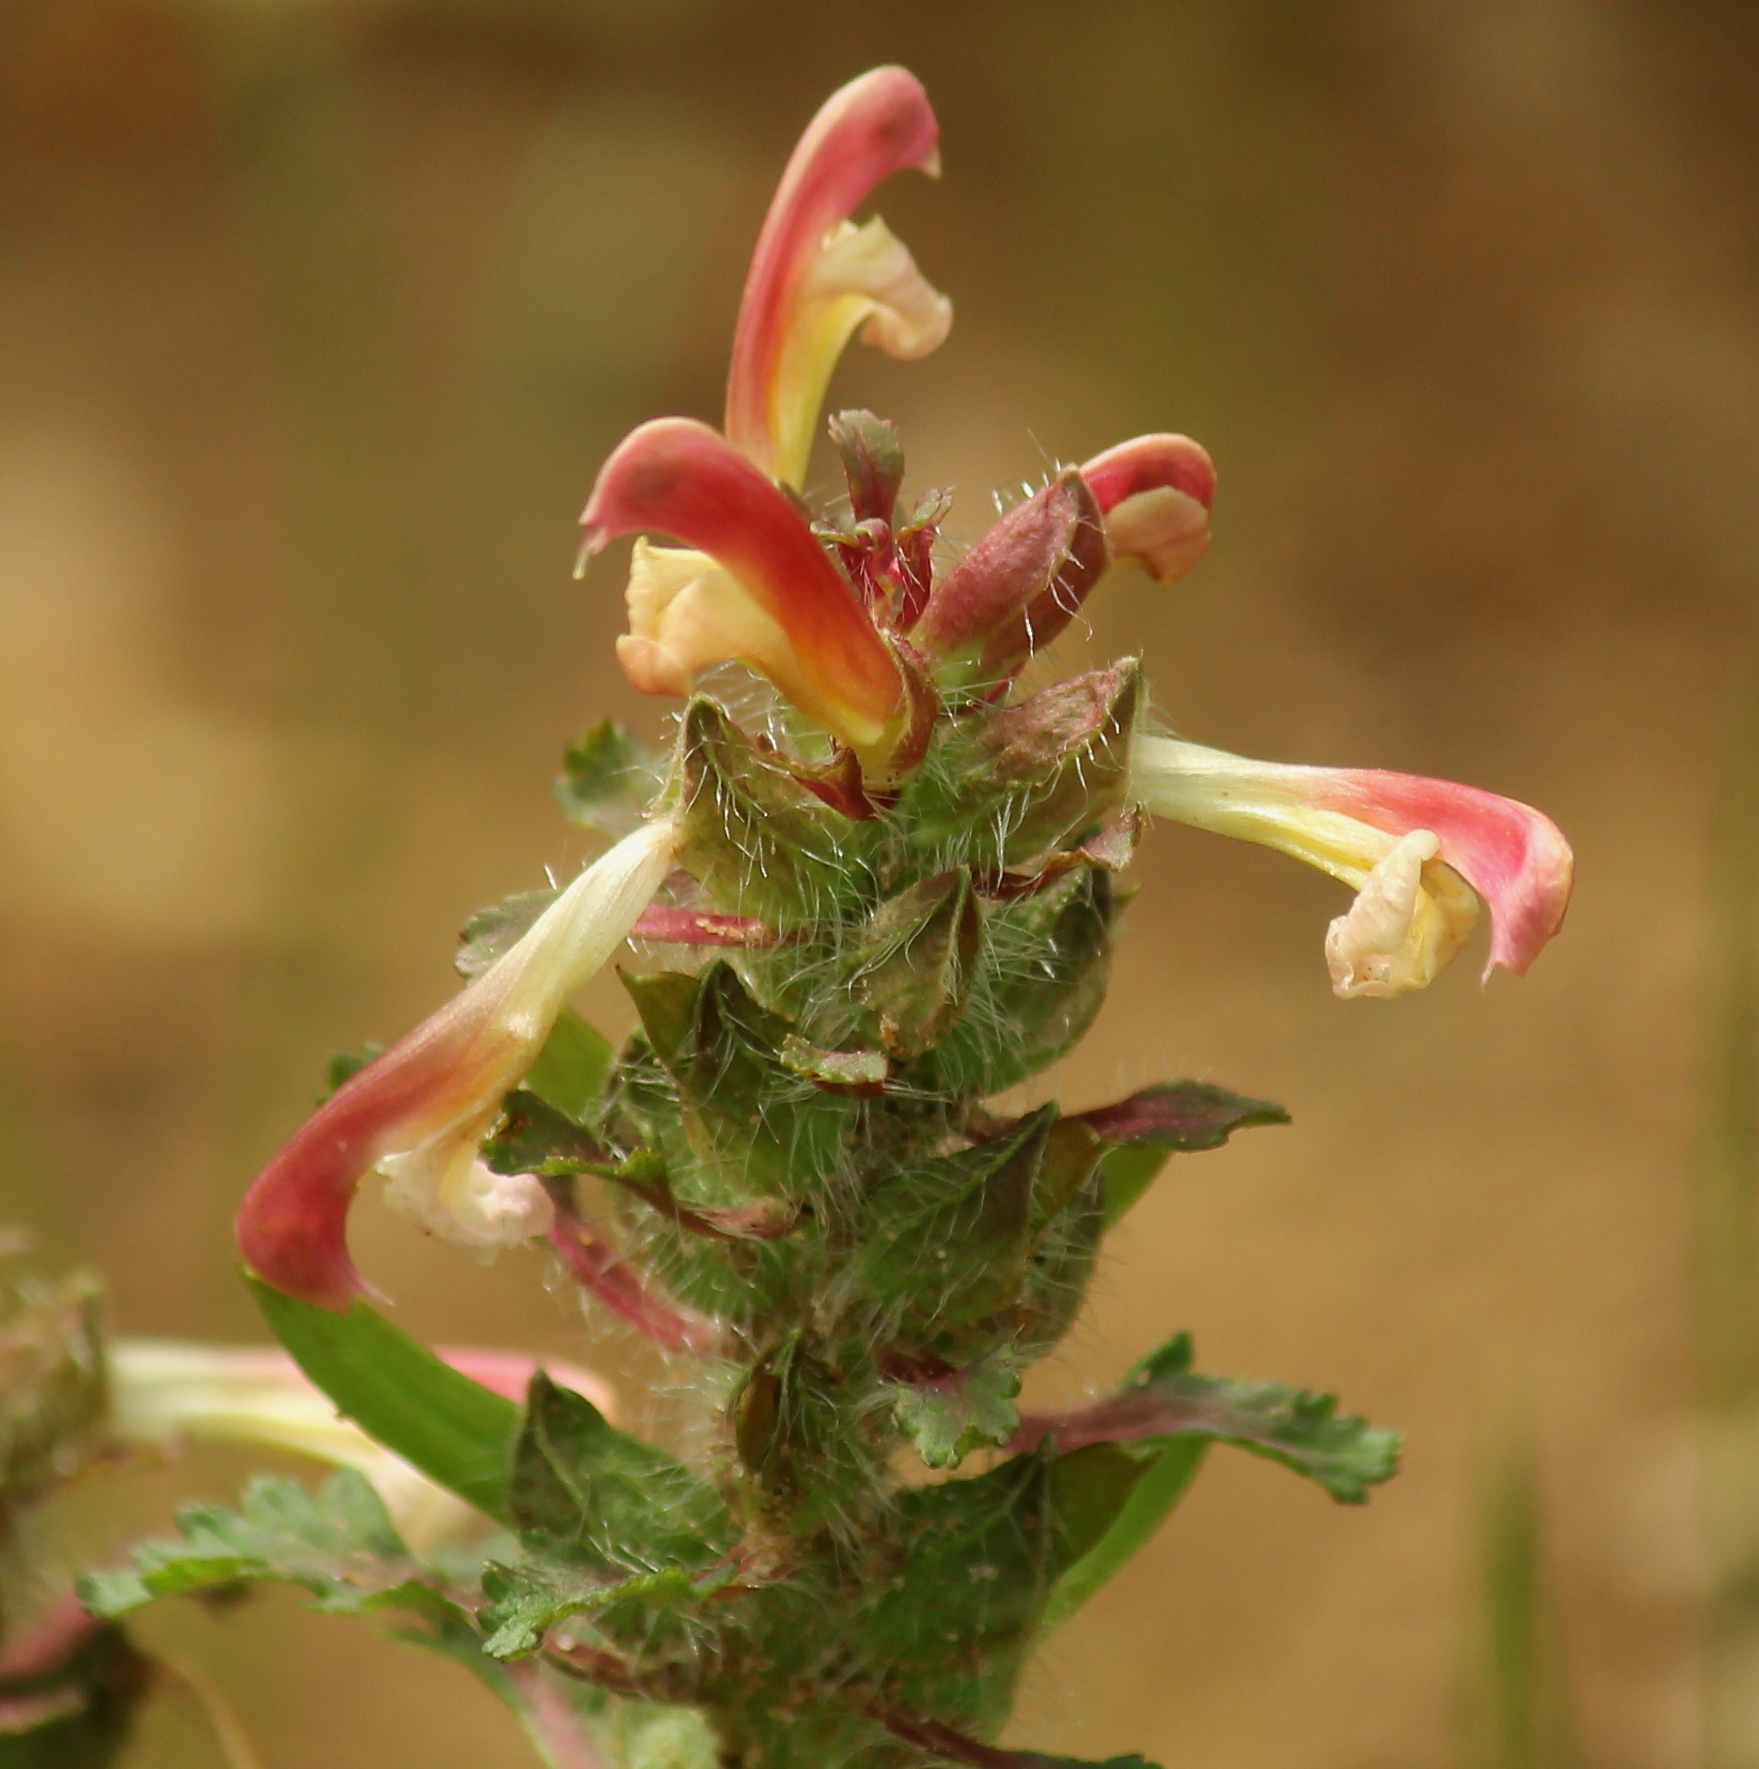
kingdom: Plantae
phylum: Tracheophyta
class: Magnoliopsida
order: Lamiales
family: Orobanchaceae
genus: Pedicularis
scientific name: Pedicularis canadensis
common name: Early lousewort
